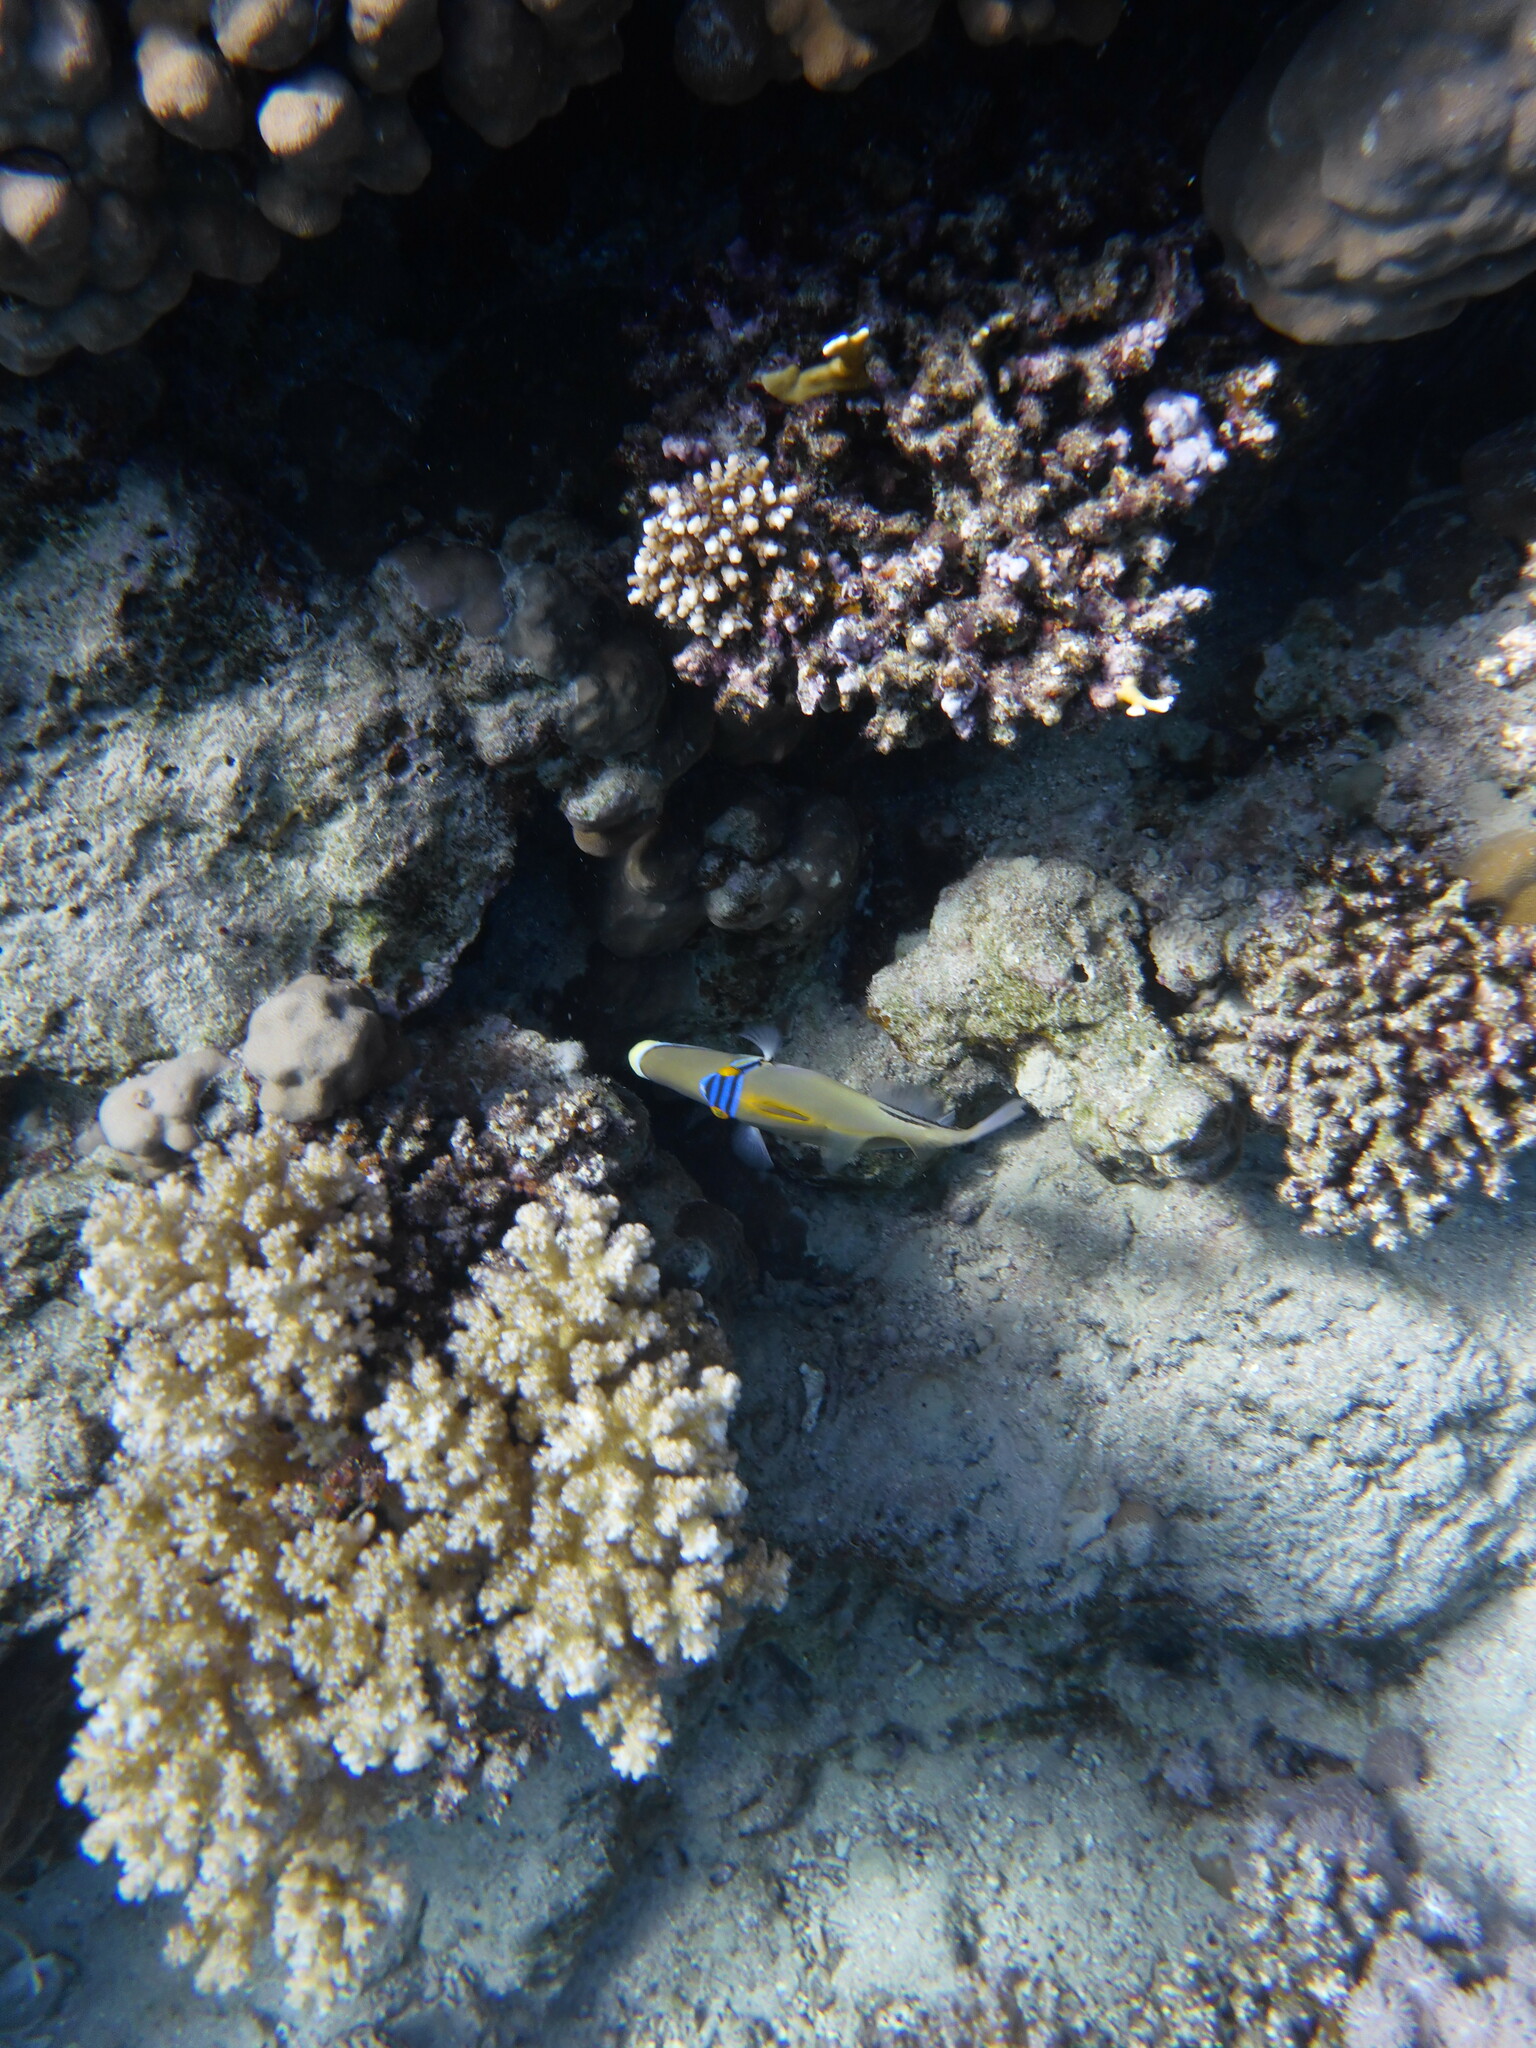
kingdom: Animalia
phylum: Chordata
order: Tetraodontiformes
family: Balistidae
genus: Rhinecanthus
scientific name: Rhinecanthus assasi
